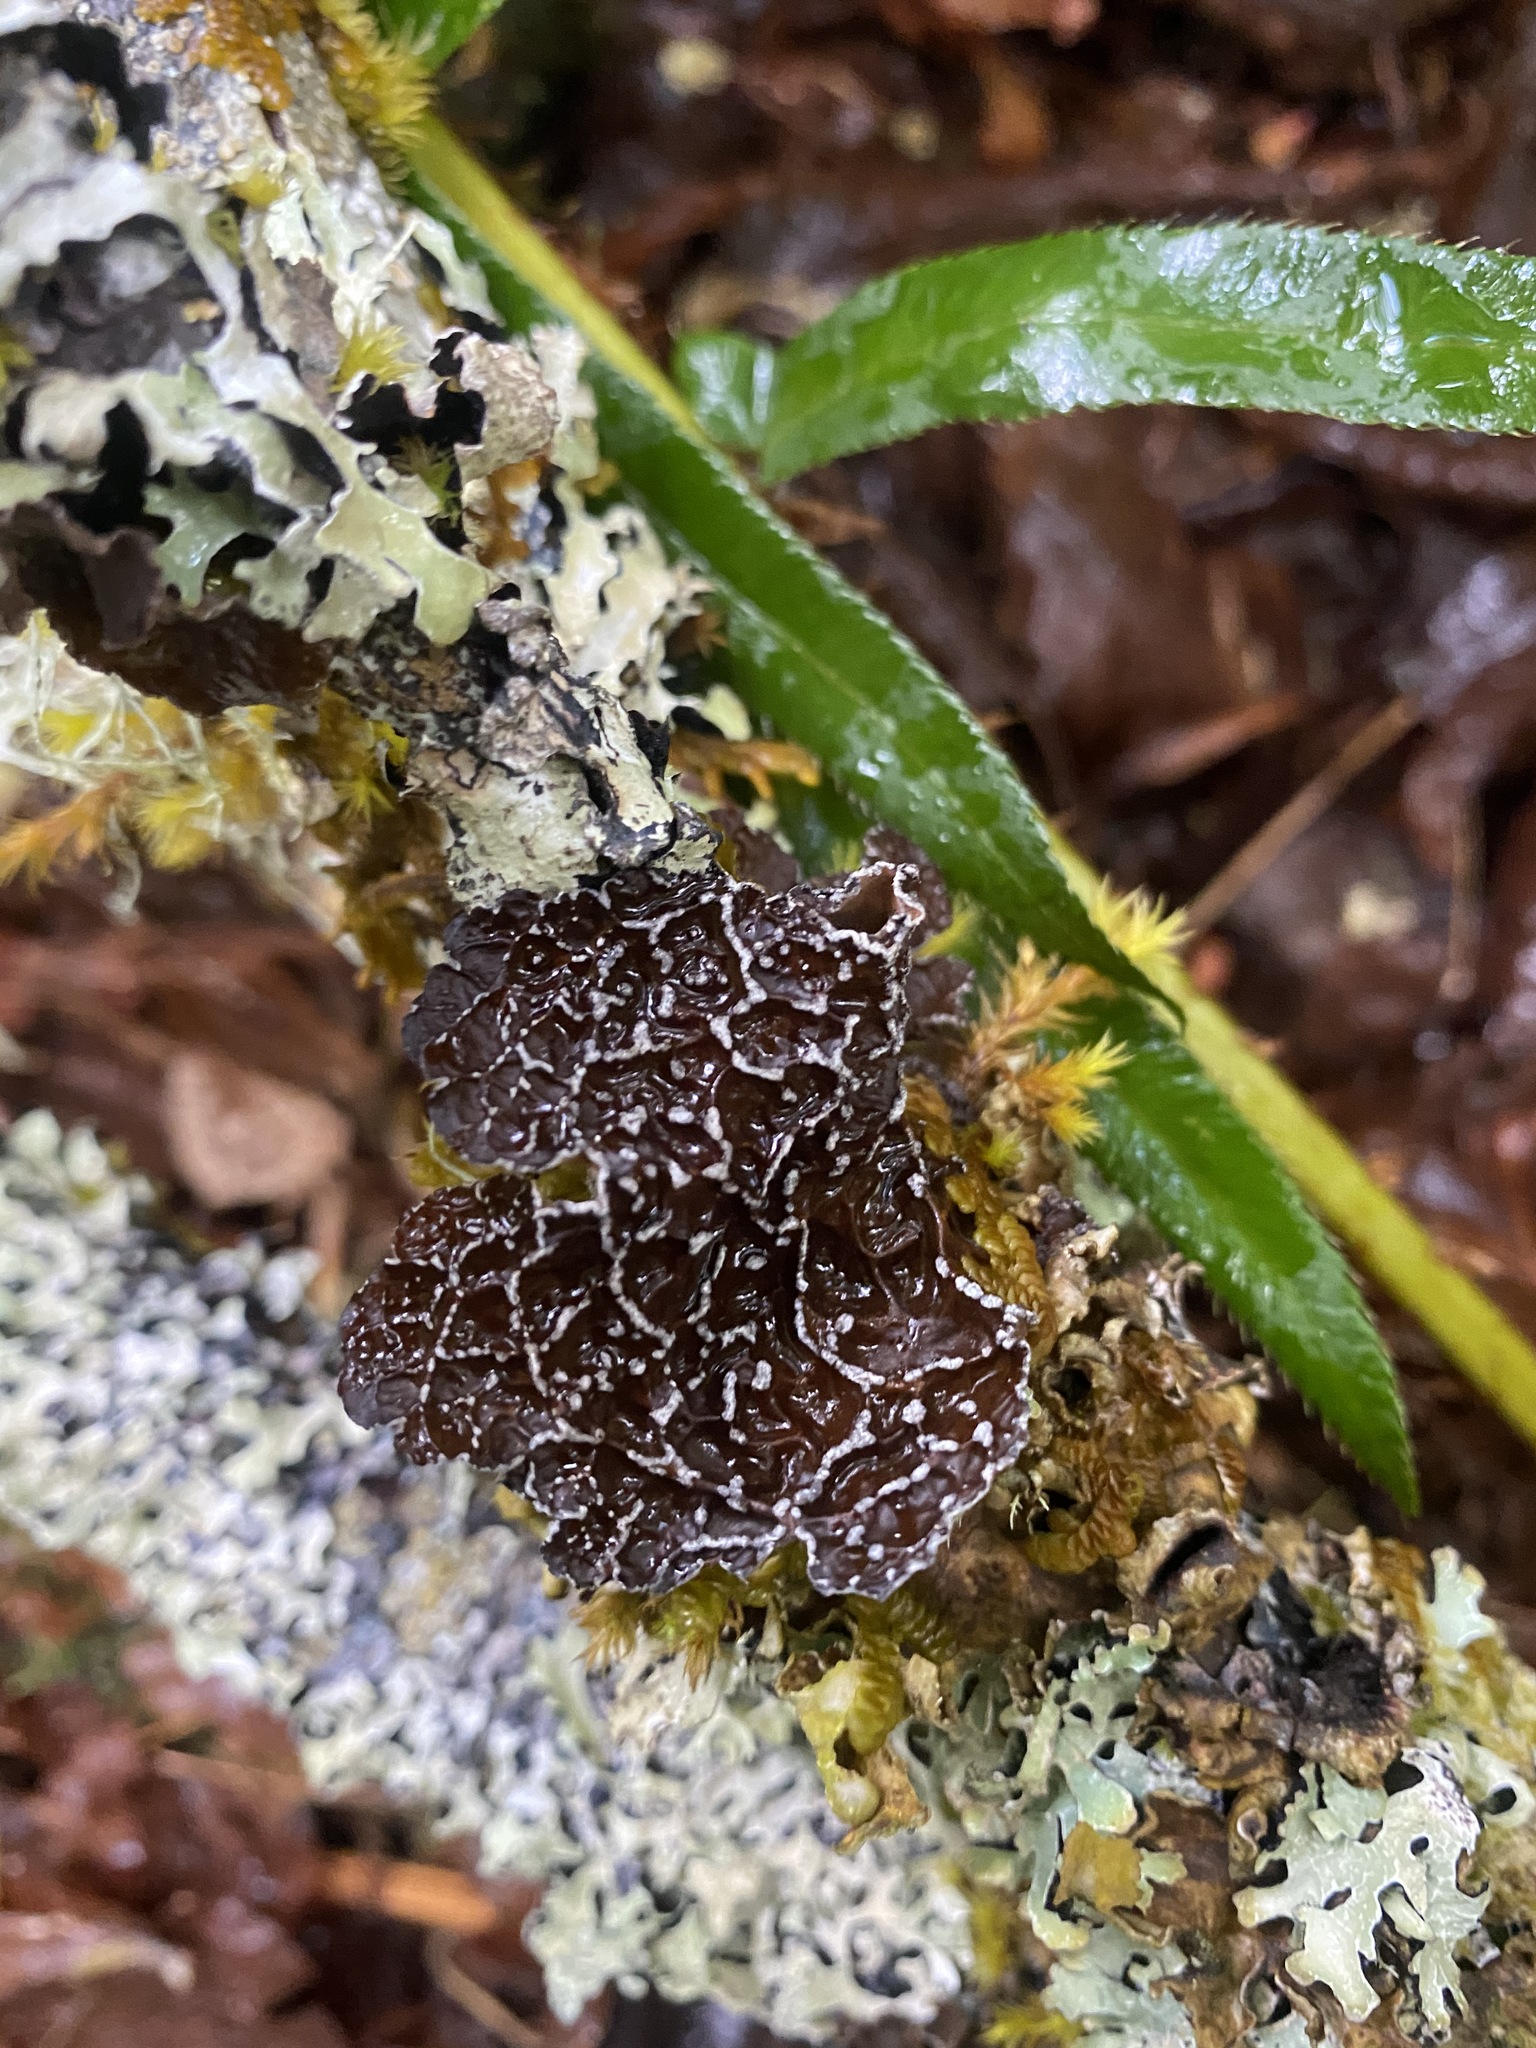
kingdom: Fungi
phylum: Ascomycota
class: Lecanoromycetes
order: Peltigerales
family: Lobariaceae
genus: Lobaria
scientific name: Lobaria anomala
